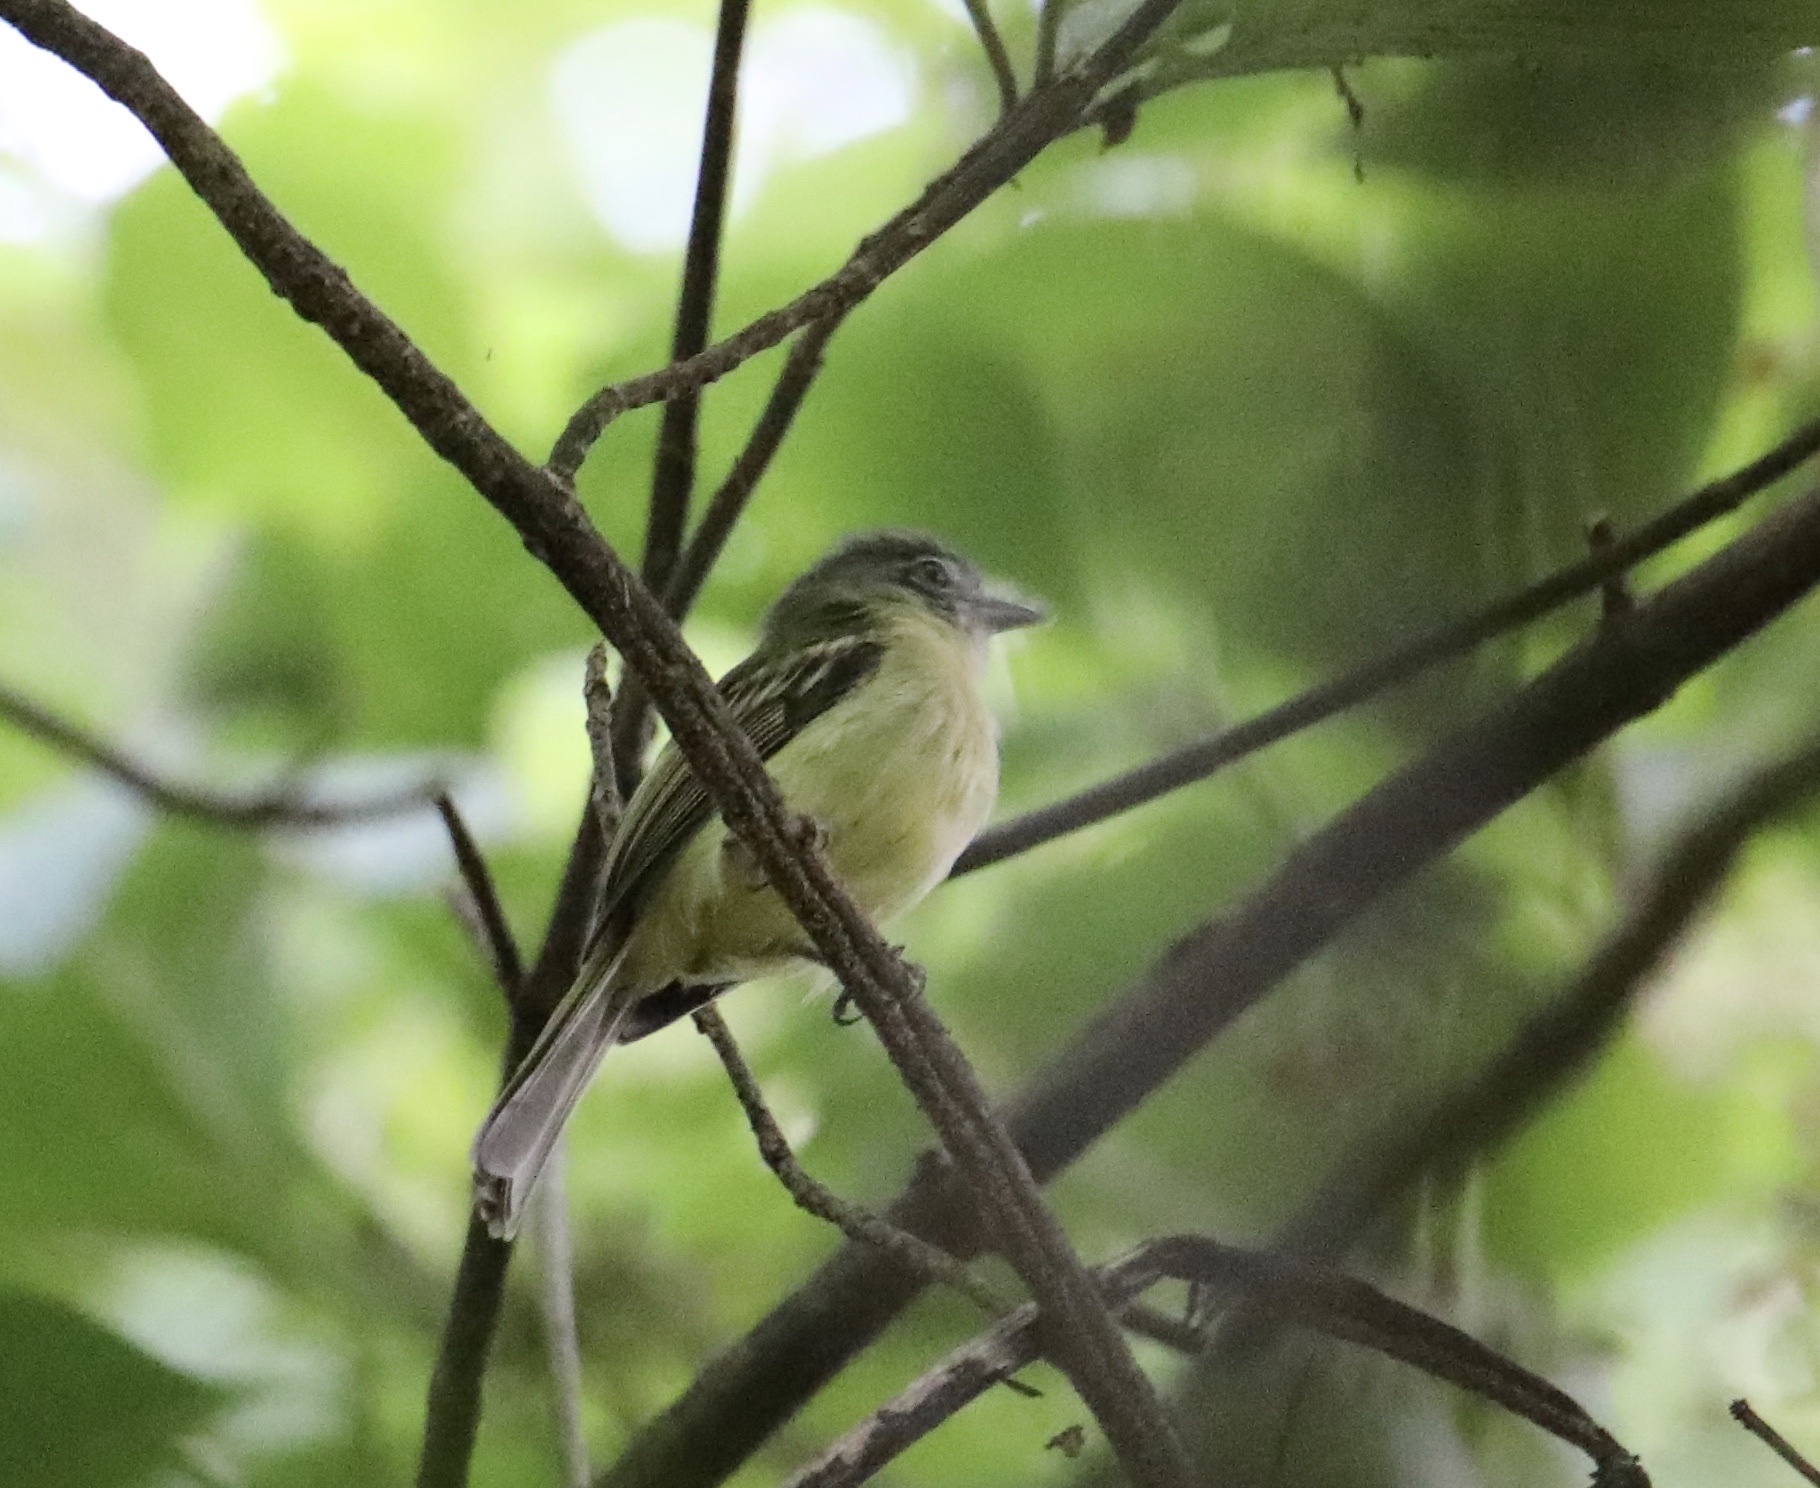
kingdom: Animalia
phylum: Chordata
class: Aves
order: Passeriformes
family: Tyrannidae
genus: Tolmomyias
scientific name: Tolmomyias sulphurescens
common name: Yellow-olive flycatcher
